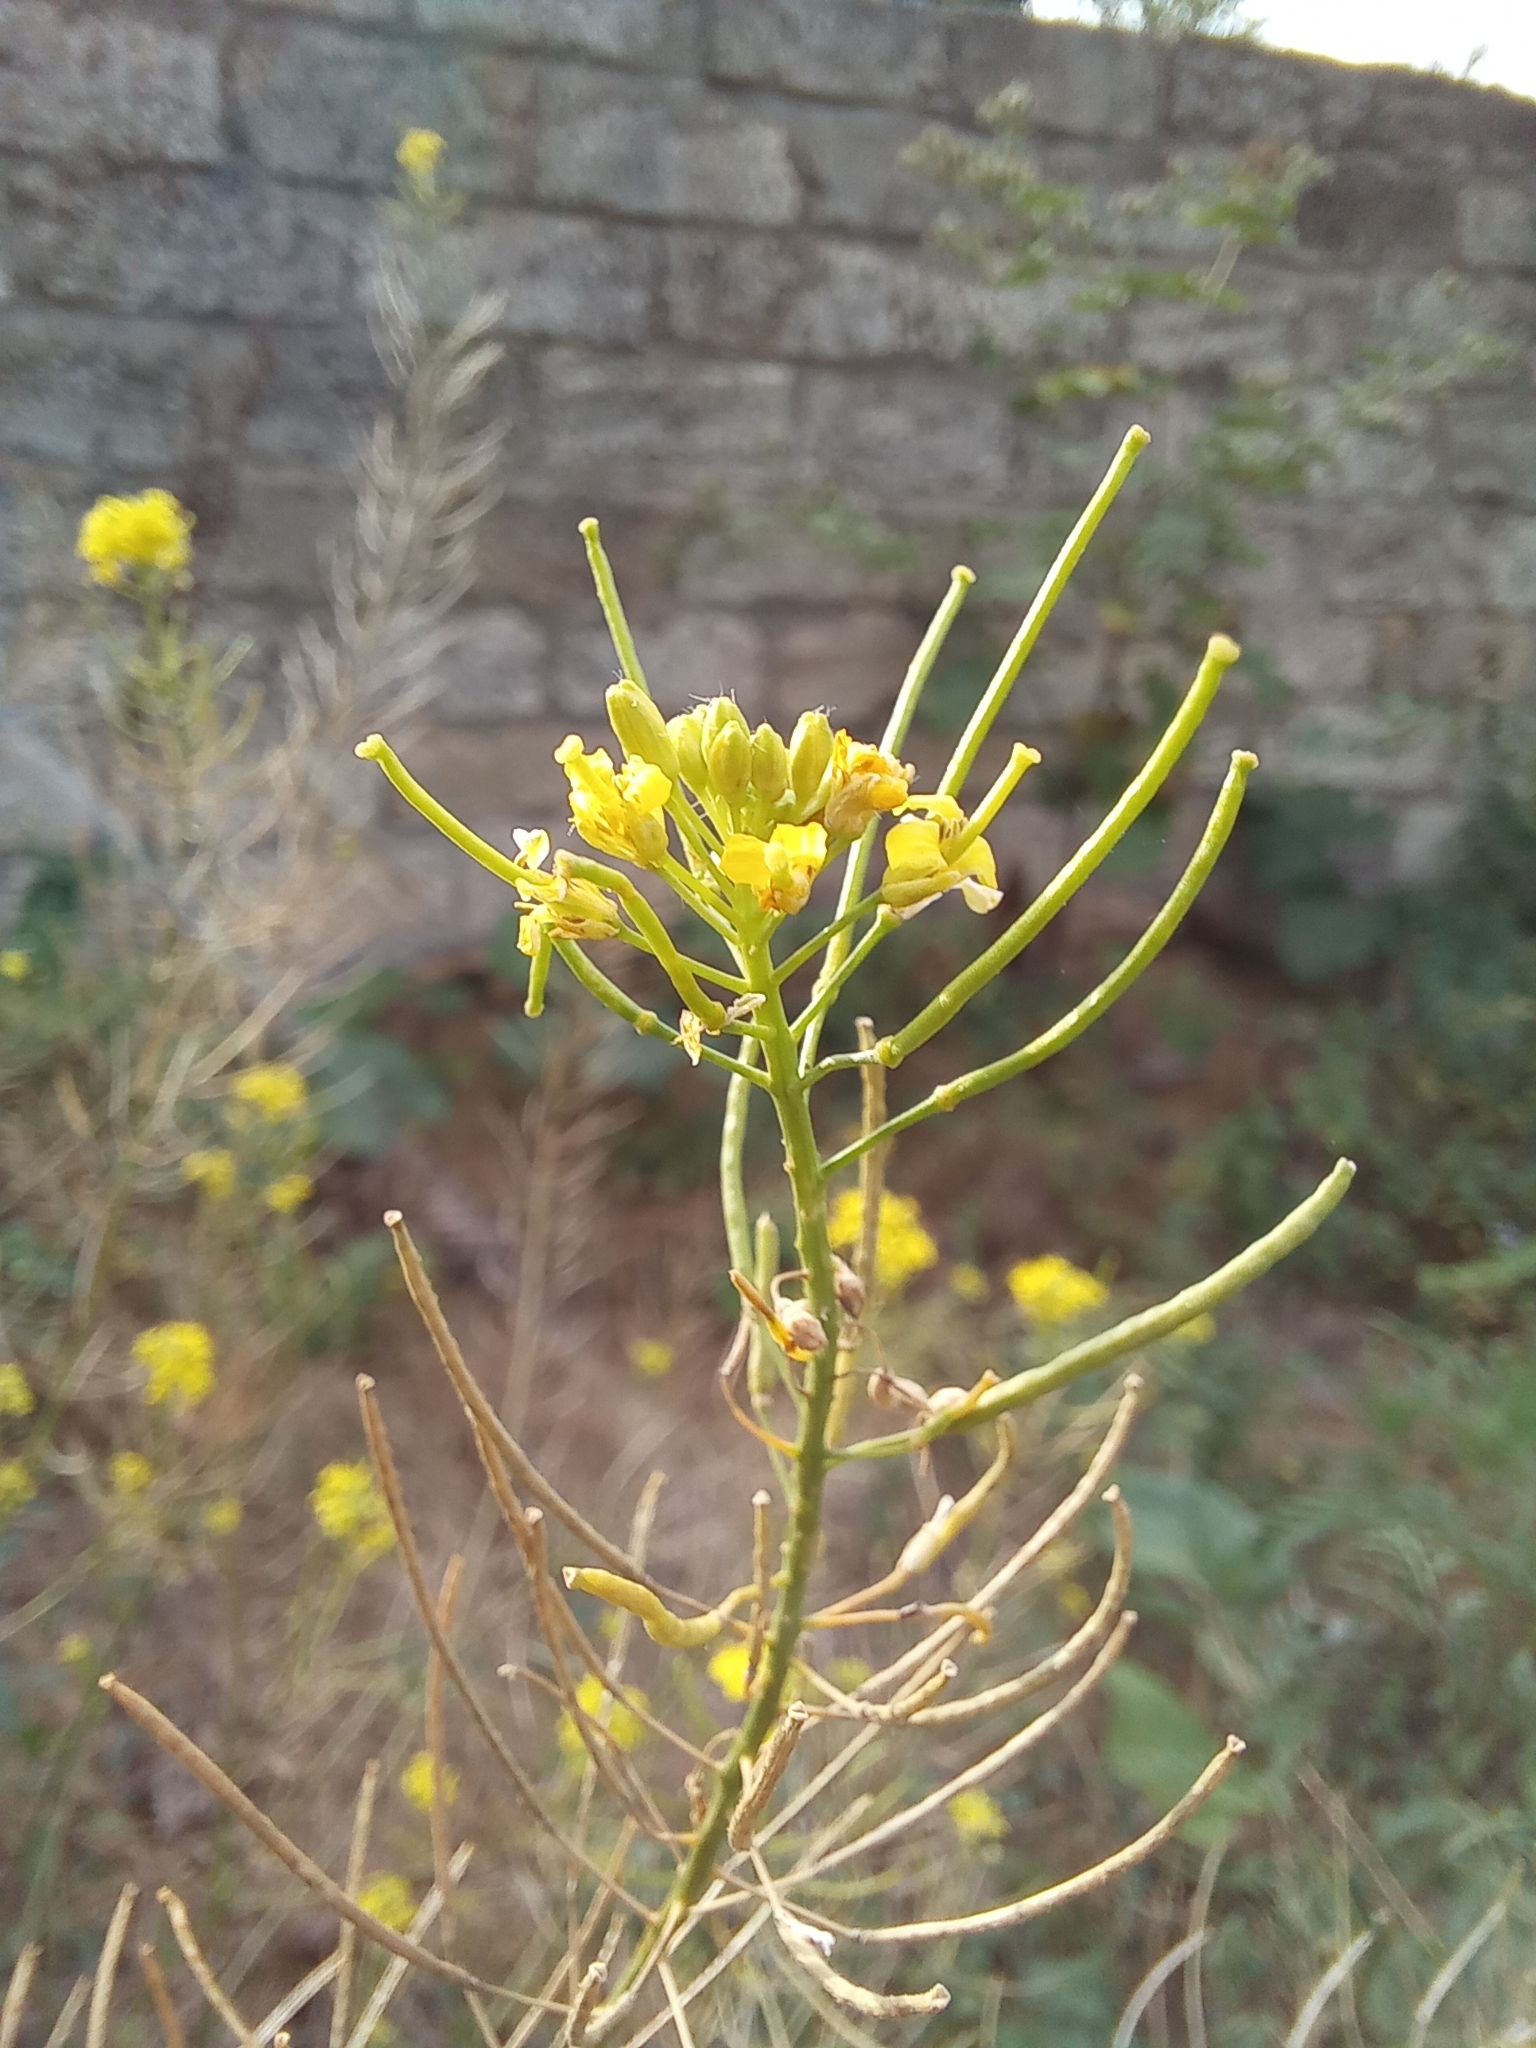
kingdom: Plantae
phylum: Tracheophyta
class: Magnoliopsida
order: Brassicales
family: Brassicaceae
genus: Sisymbrium
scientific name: Sisymbrium loeselii
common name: False london-rocket
